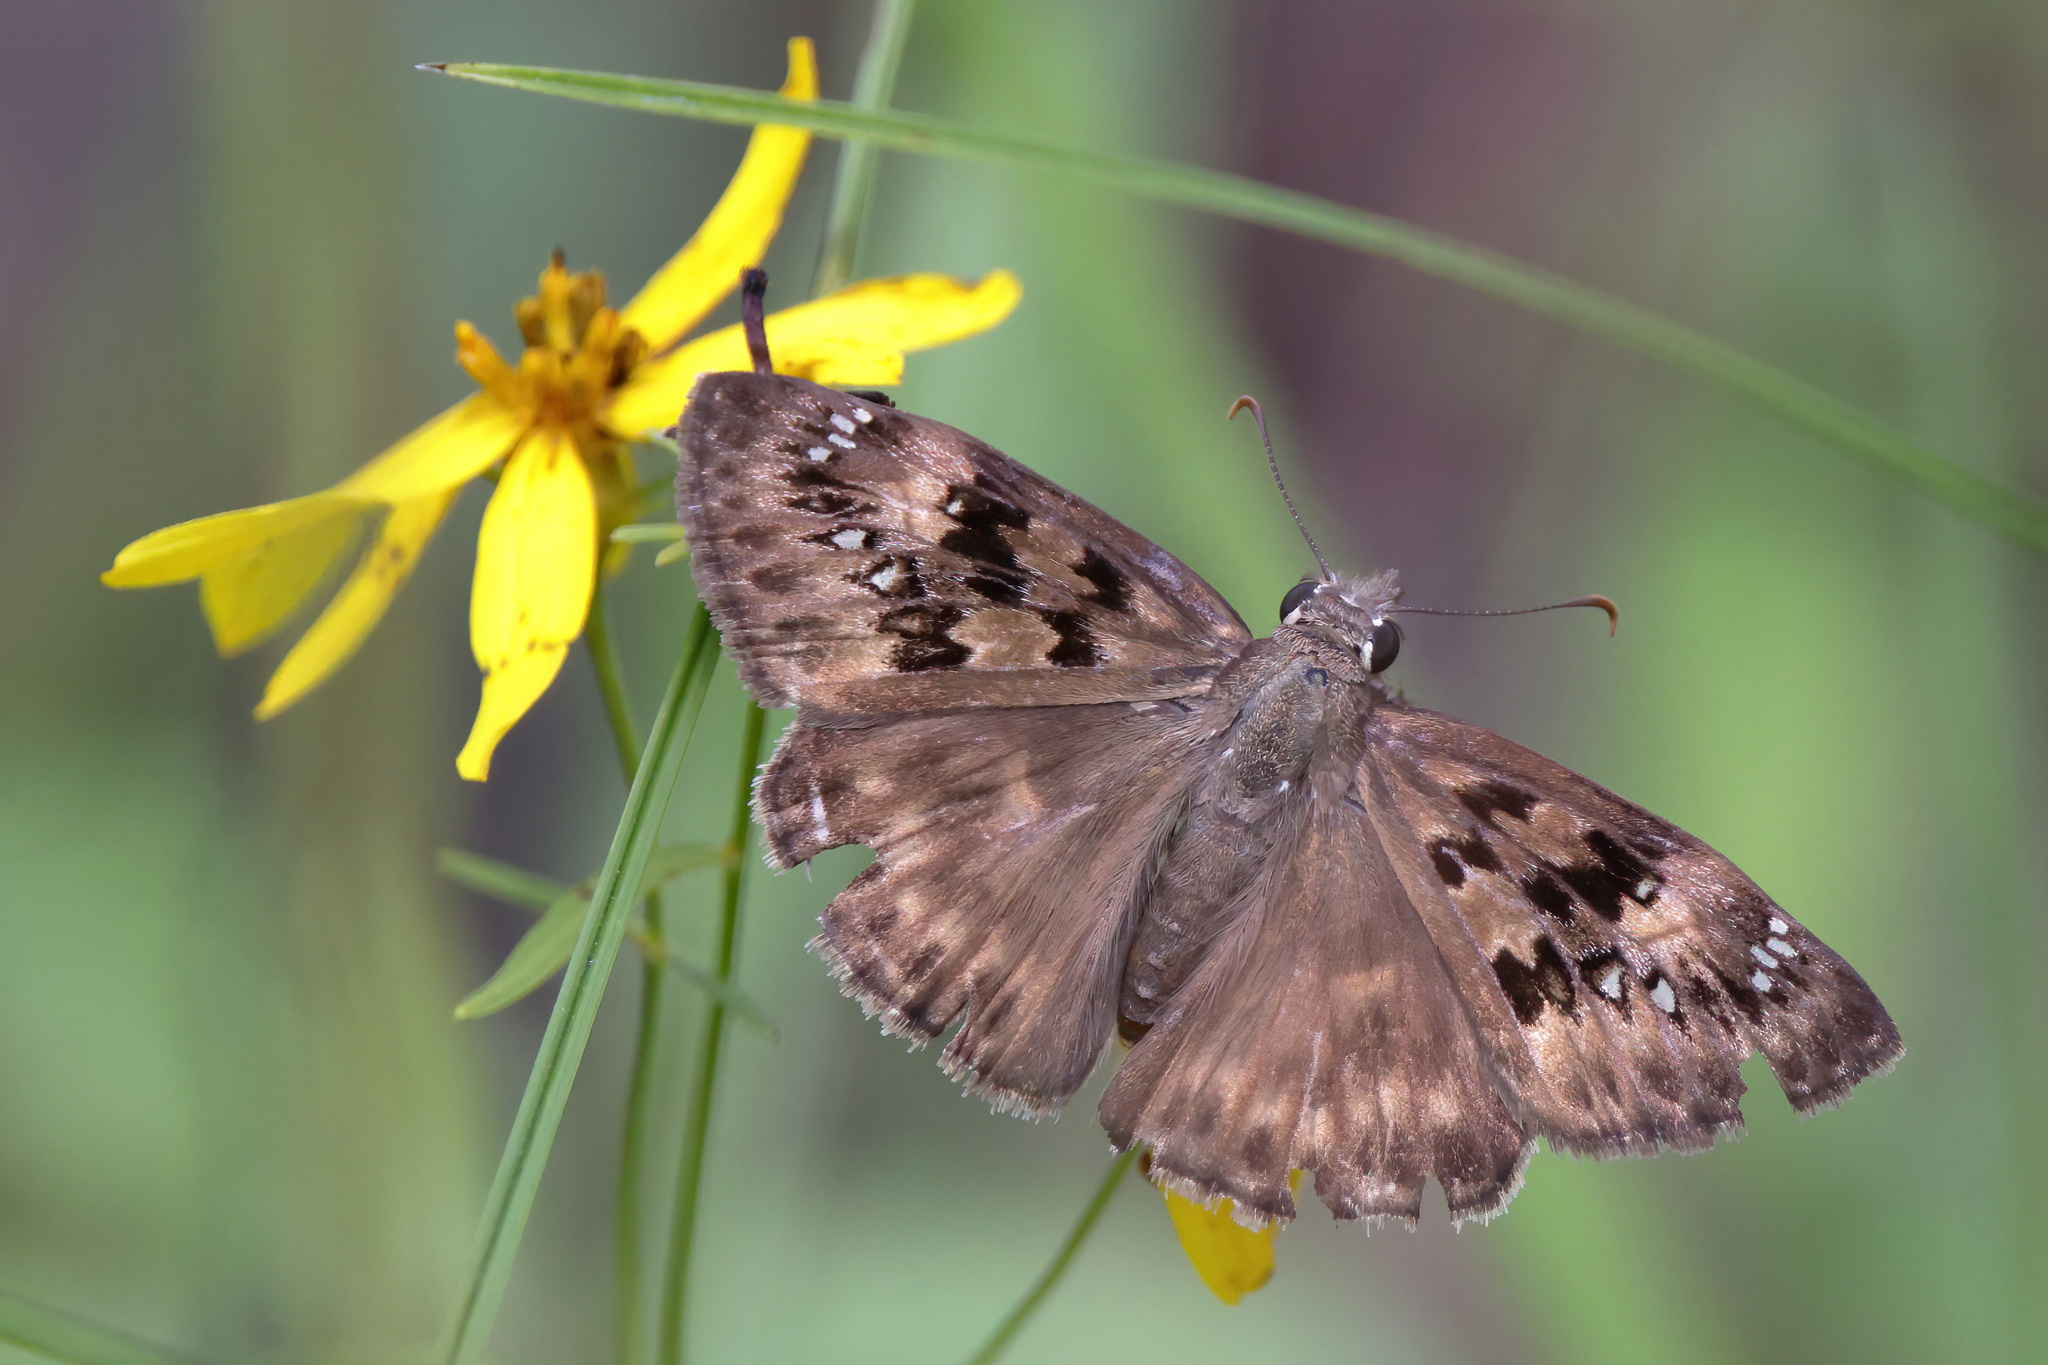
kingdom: Animalia
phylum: Arthropoda
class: Insecta
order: Lepidoptera
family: Hesperiidae
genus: Erynnis
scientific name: Erynnis horatius
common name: Horace's duskywing
